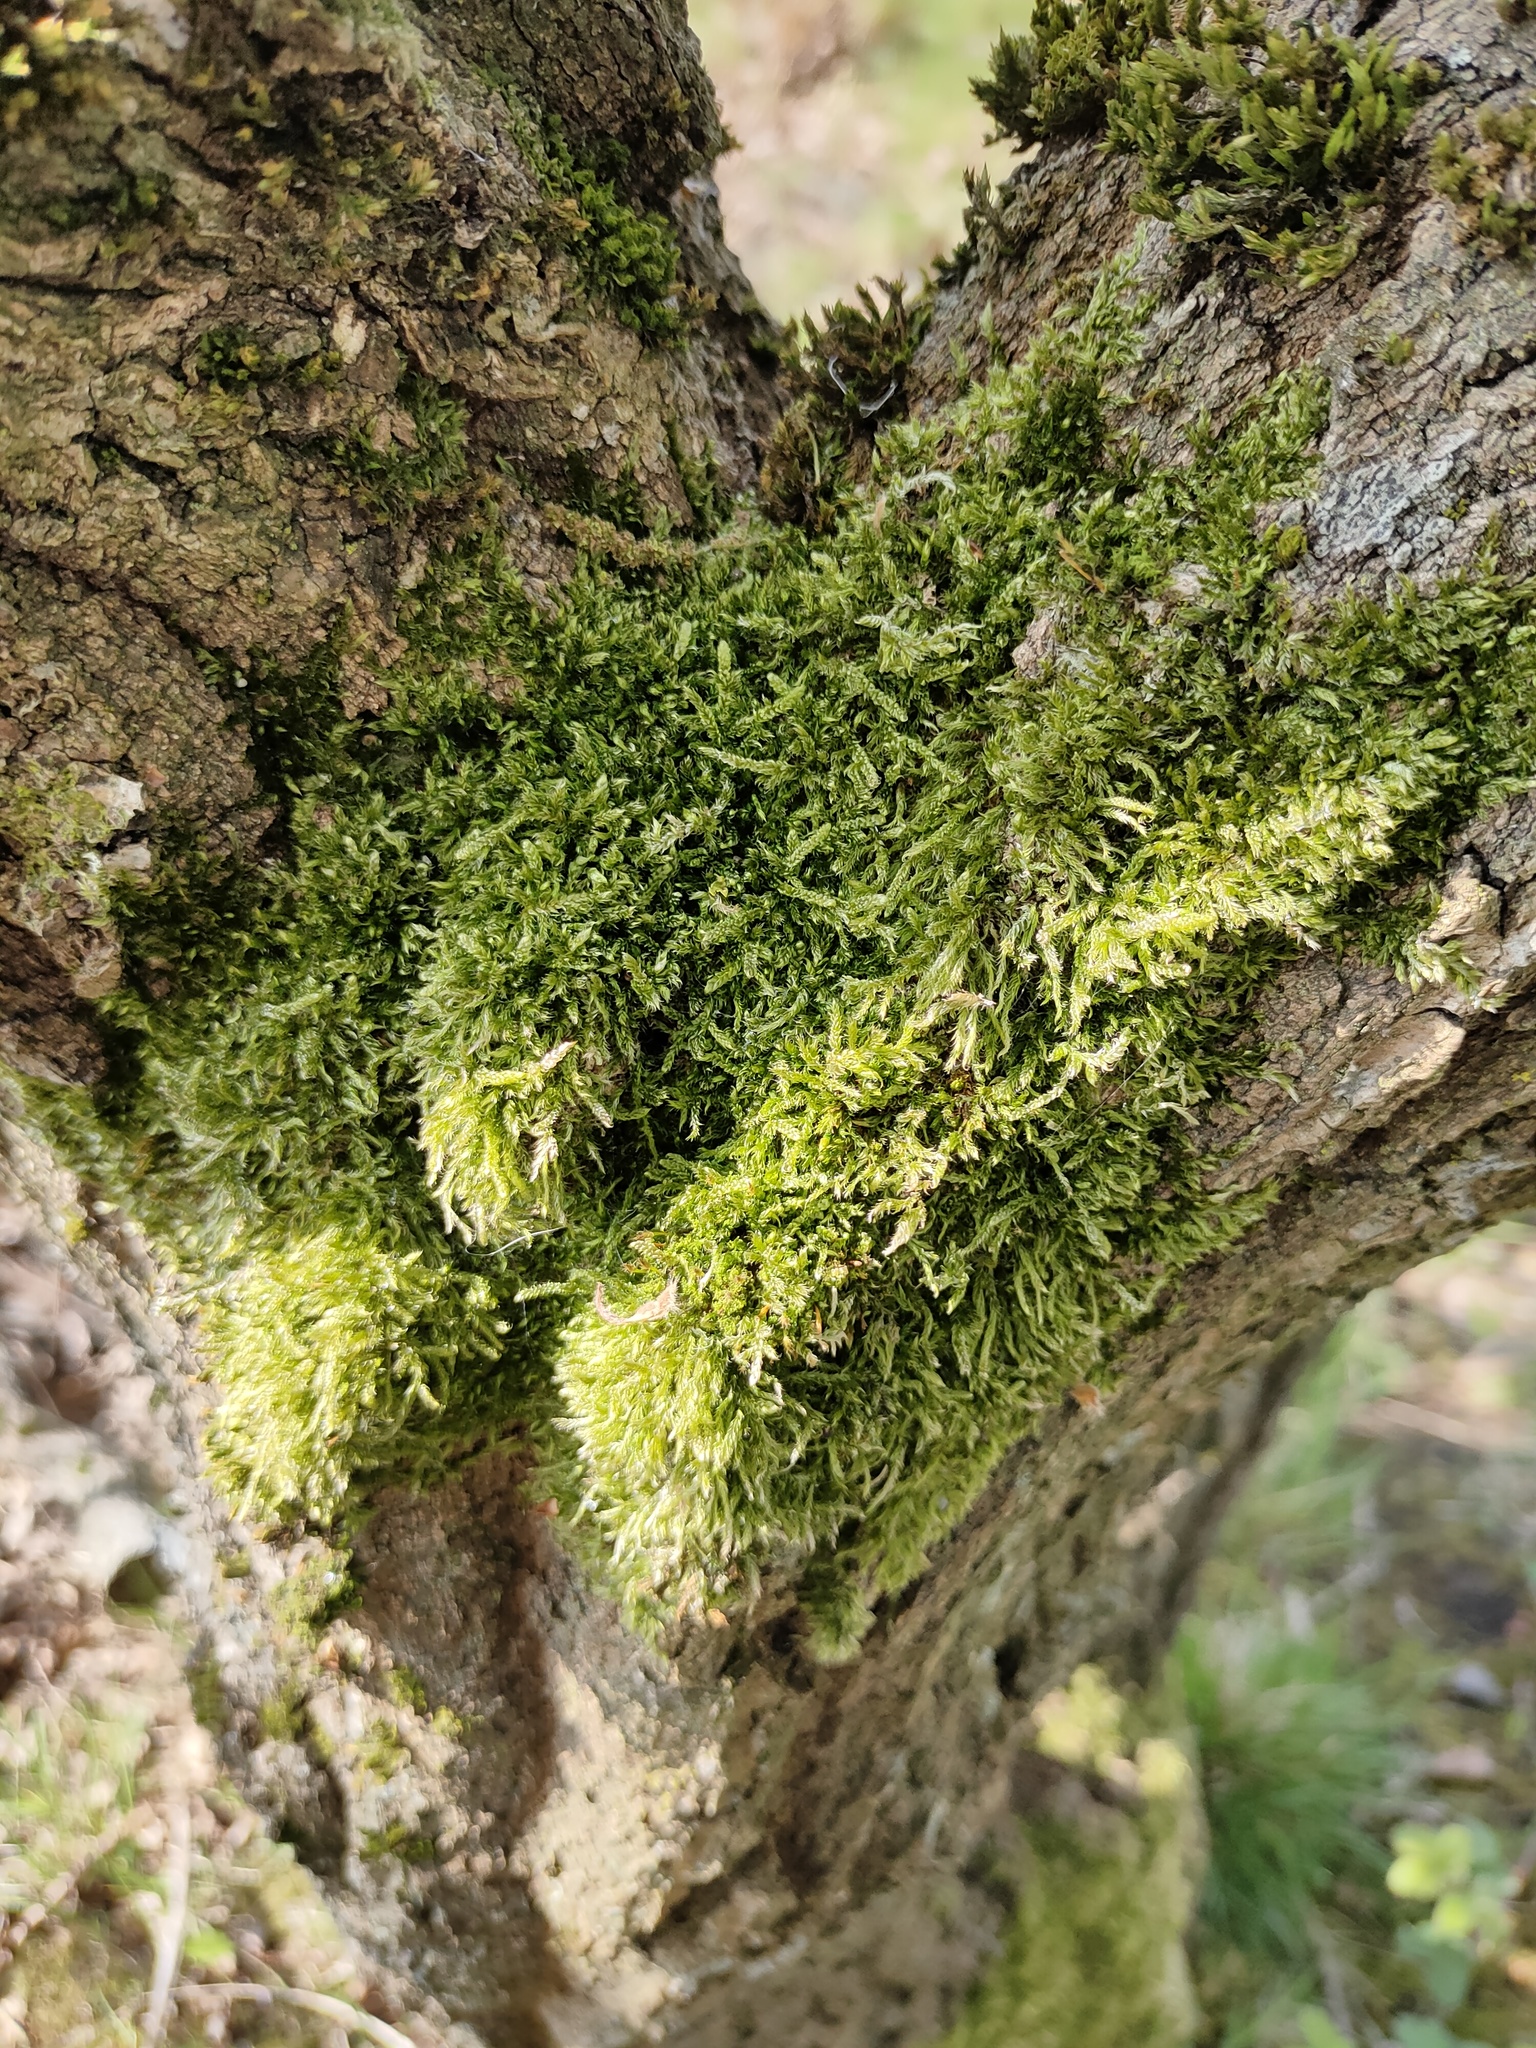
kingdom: Plantae
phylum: Bryophyta
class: Bryopsida
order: Hypnales
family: Hypnaceae
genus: Hypnum
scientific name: Hypnum cupressiforme
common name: Cypress-leaved plait-moss
